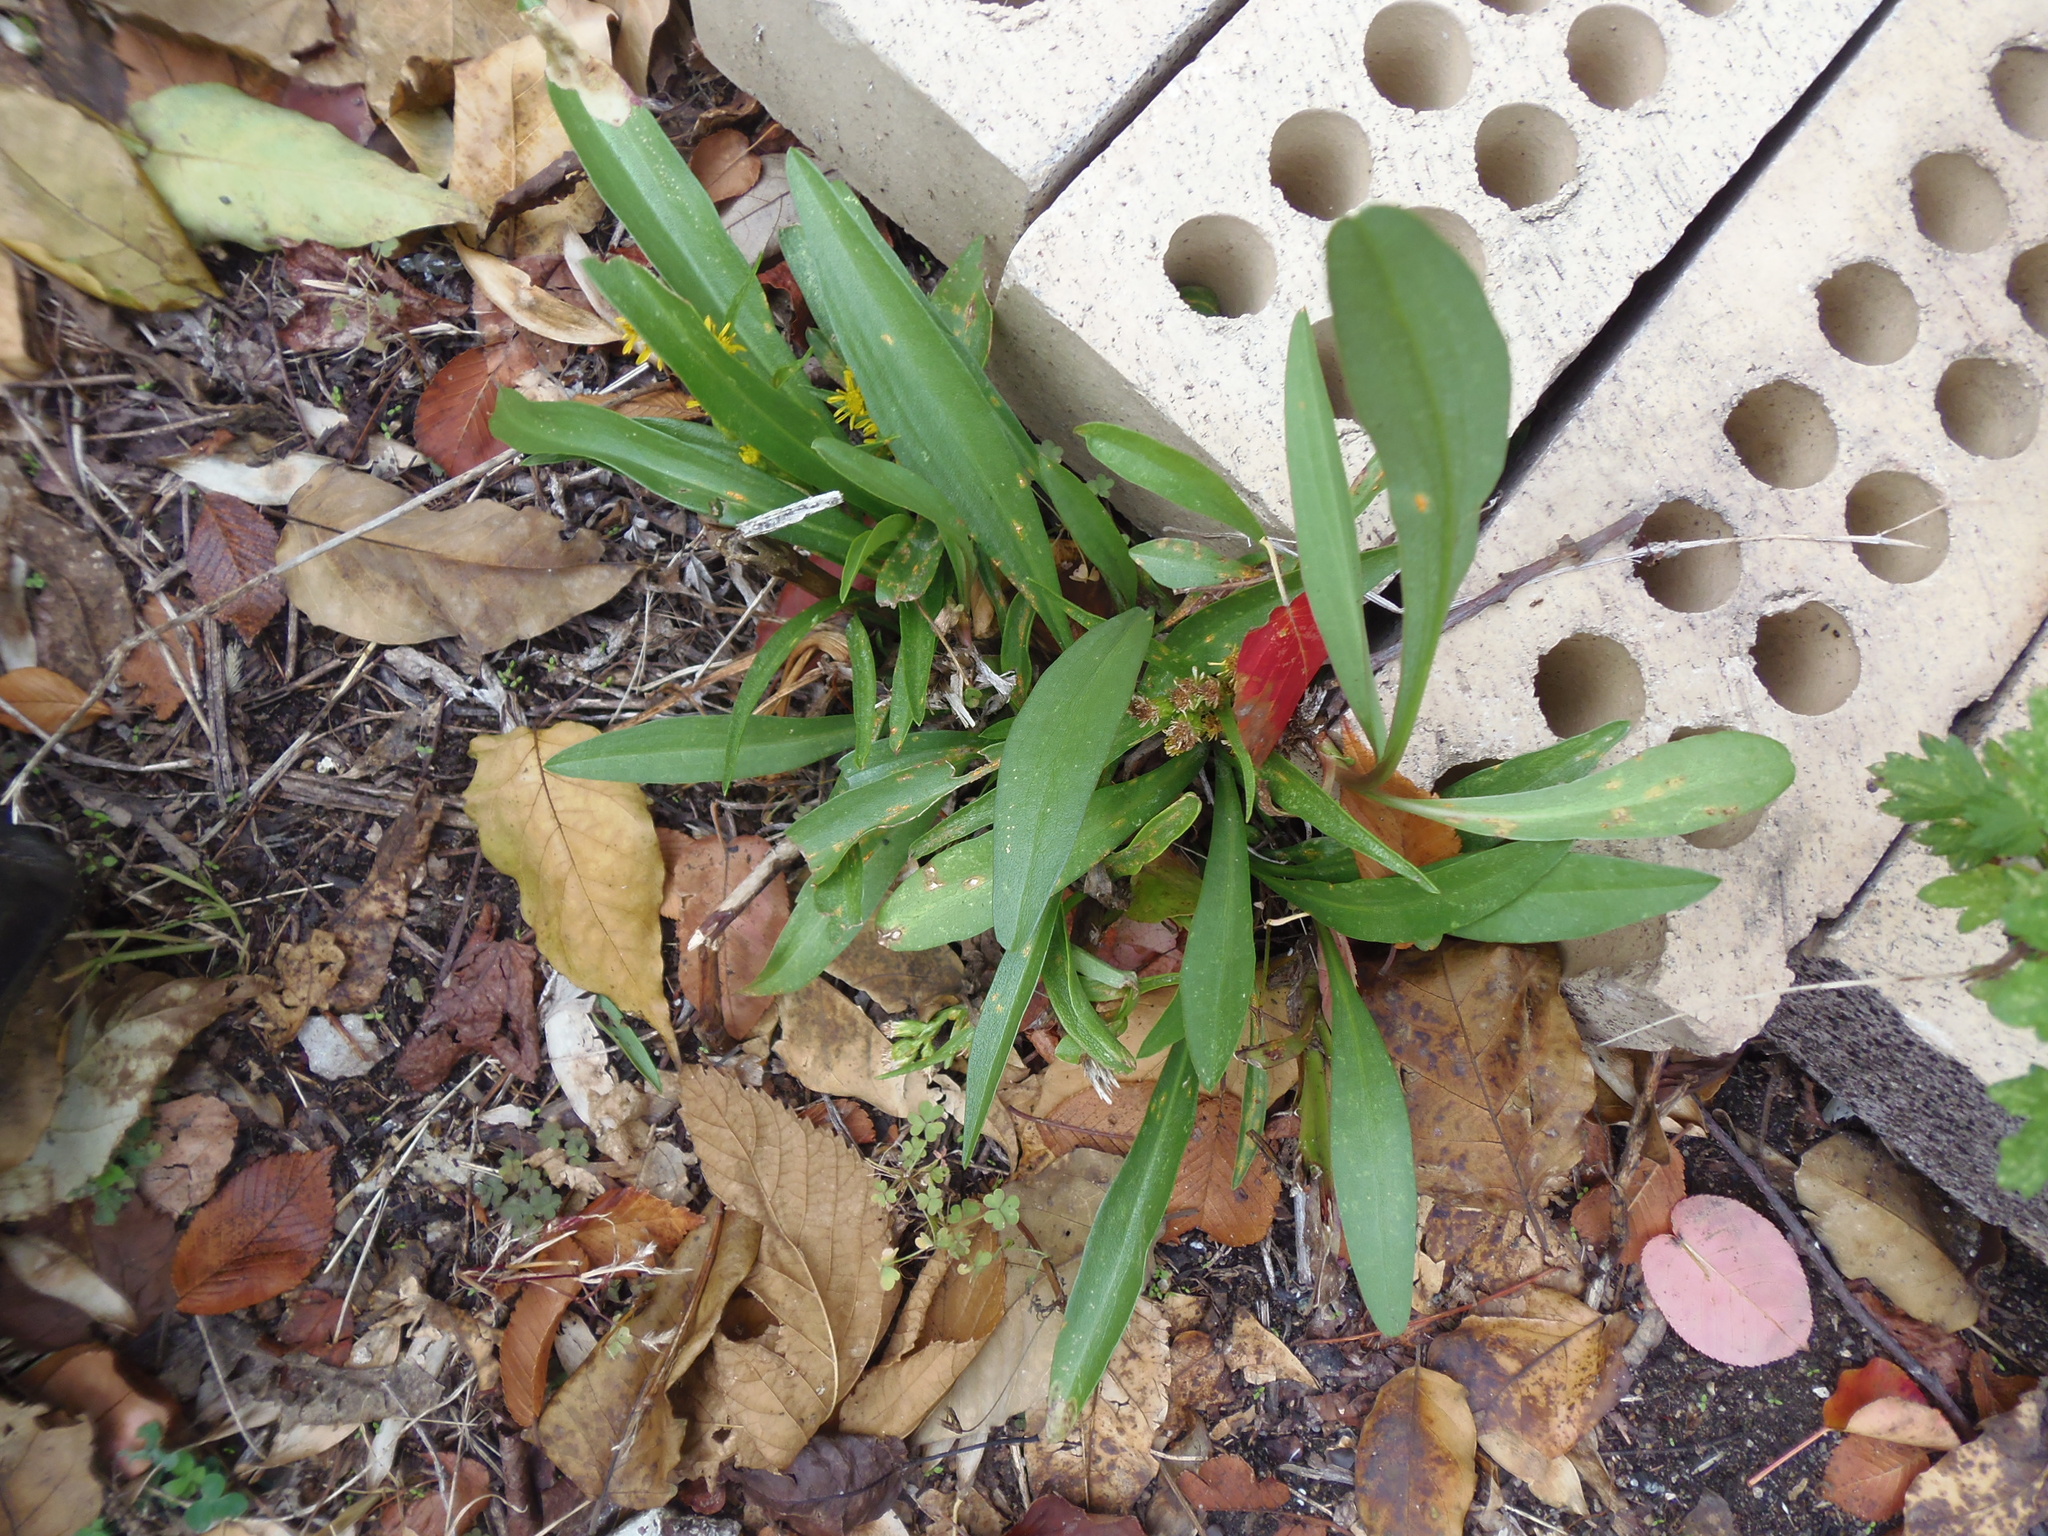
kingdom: Plantae
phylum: Tracheophyta
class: Magnoliopsida
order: Asterales
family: Asteraceae
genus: Solidago
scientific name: Solidago sempervirens
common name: Salt-marsh goldenrod
